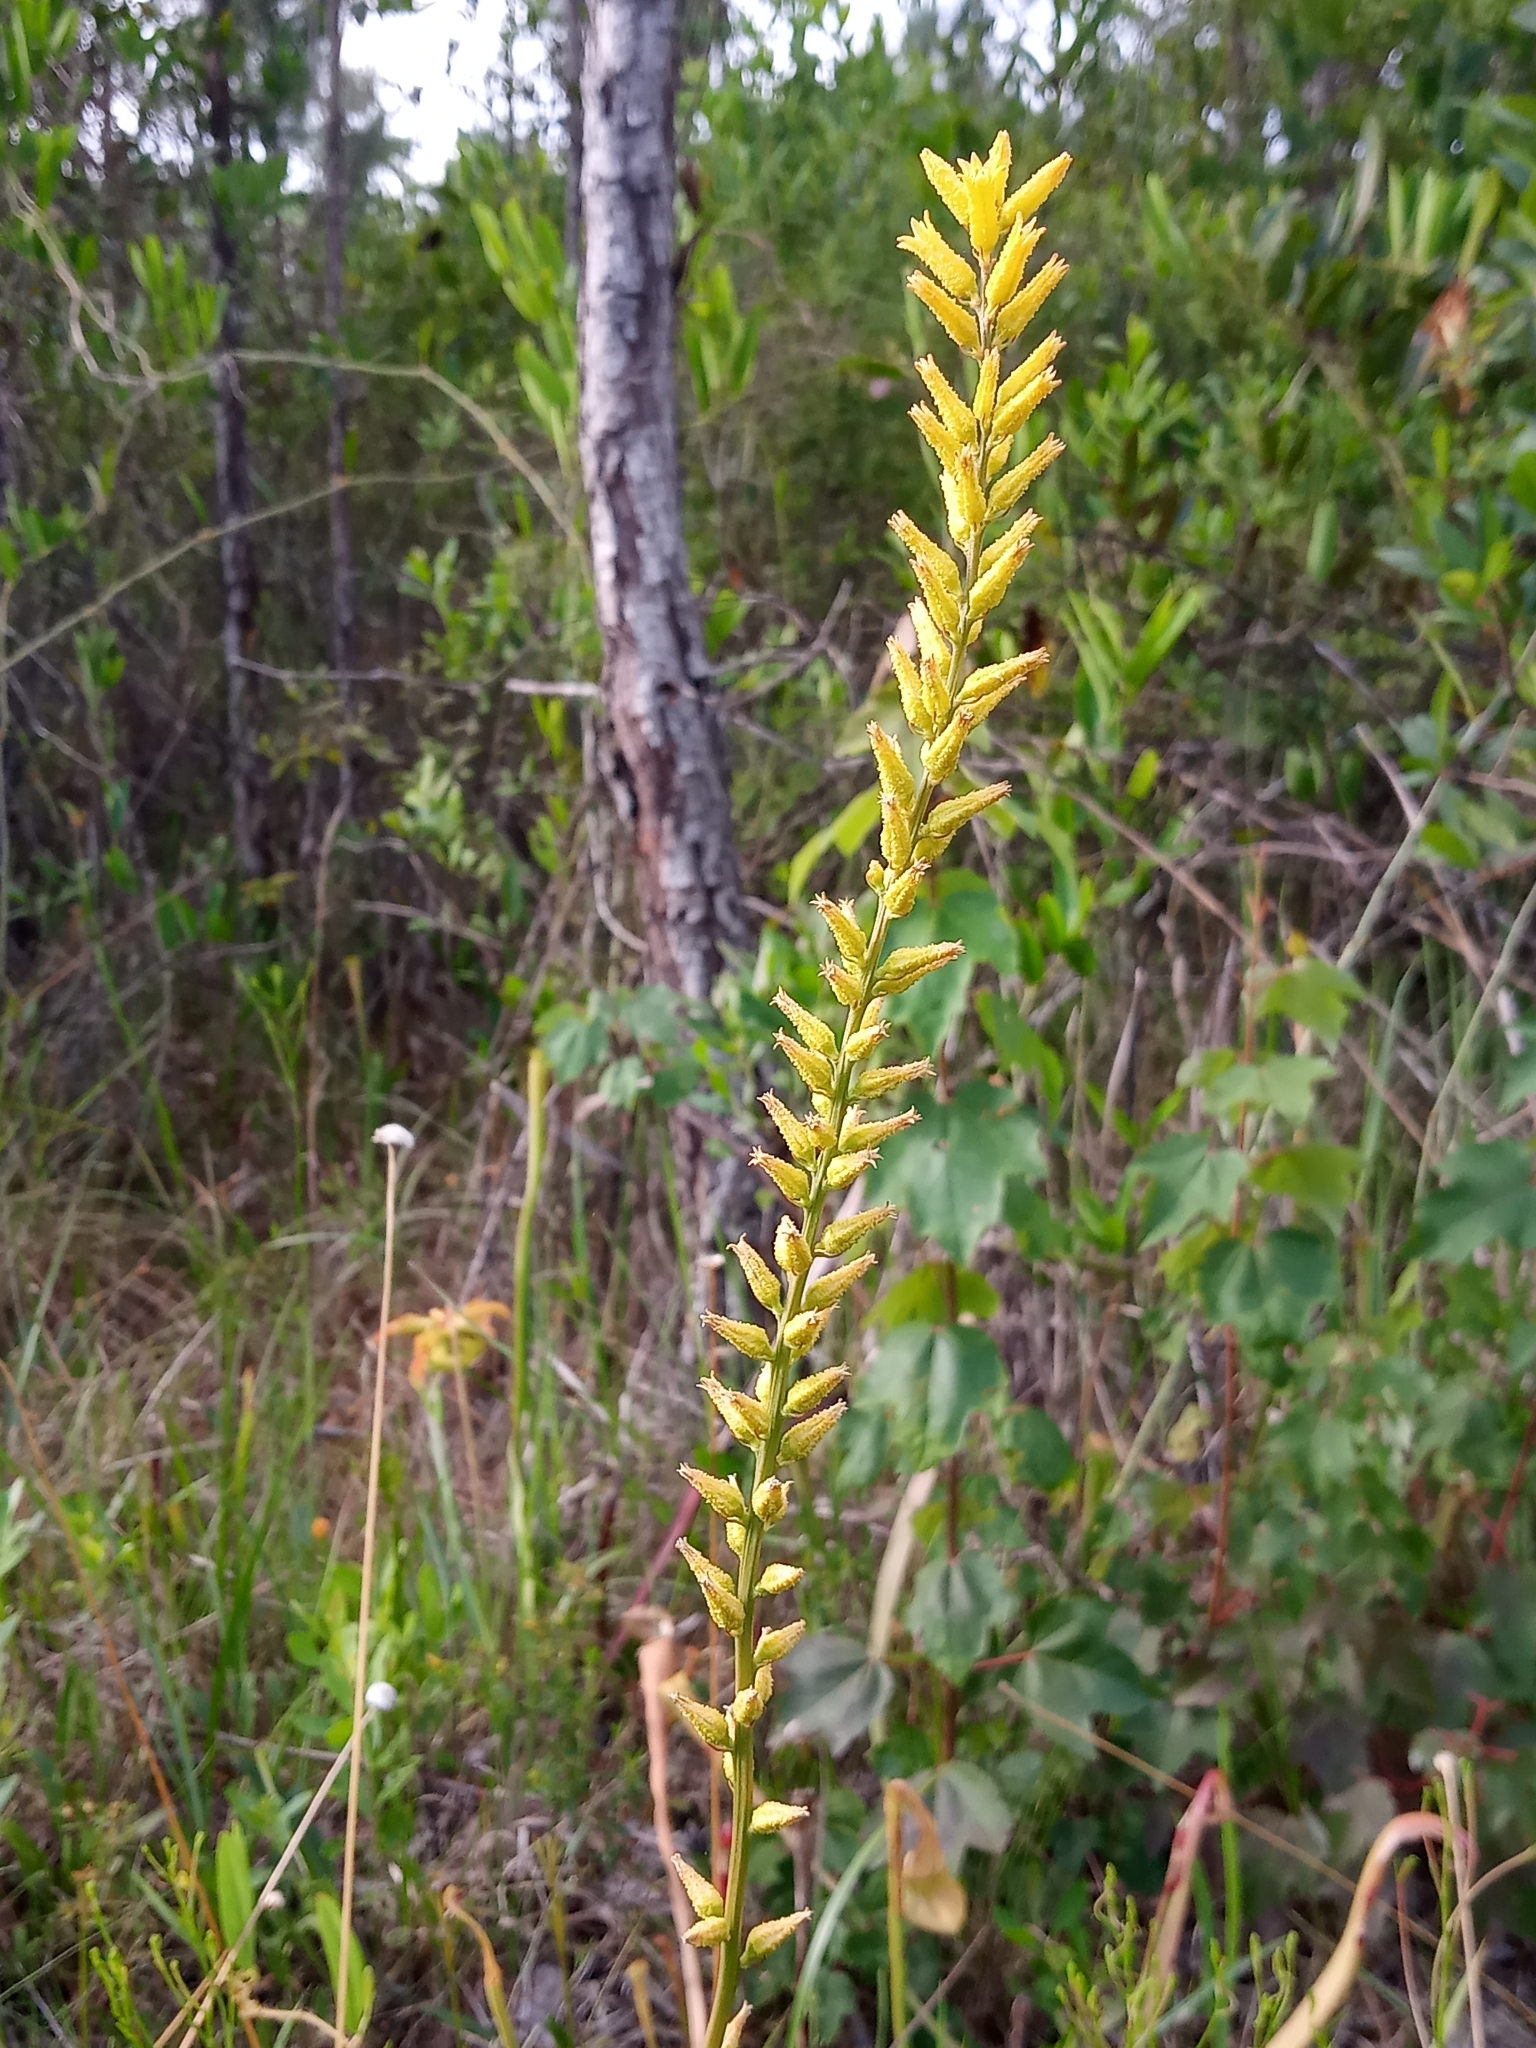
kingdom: Plantae
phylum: Tracheophyta
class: Liliopsida
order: Dioscoreales
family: Nartheciaceae
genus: Aletris
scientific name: Aletris lutea
